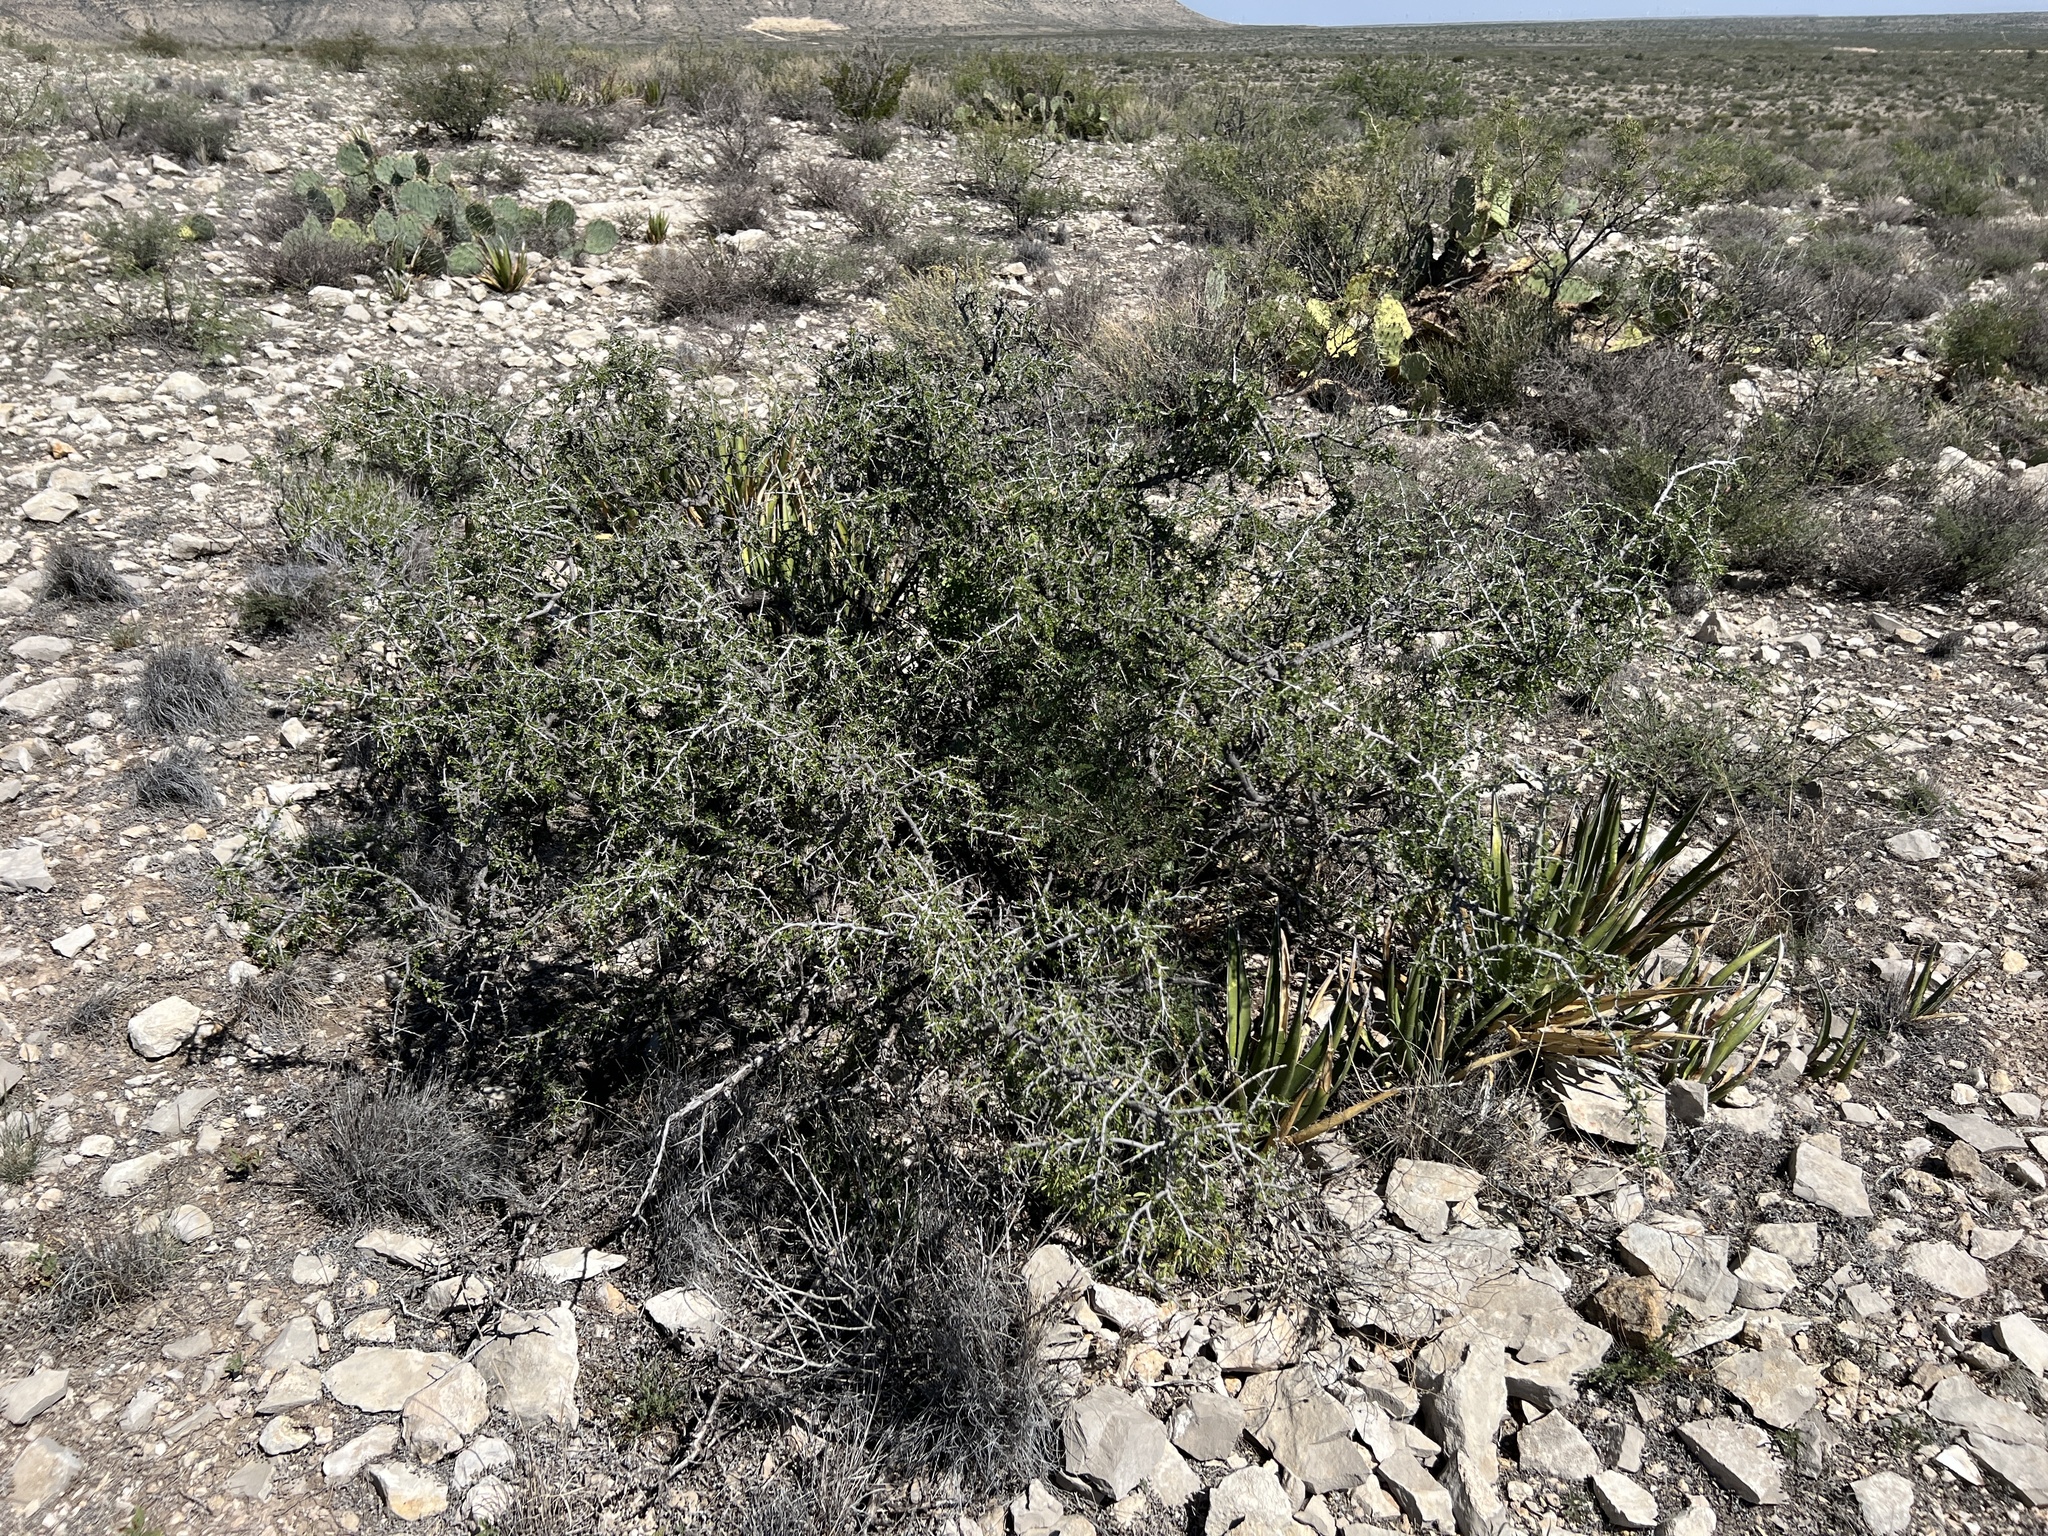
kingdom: Plantae
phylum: Tracheophyta
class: Magnoliopsida
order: Rosales
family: Rhamnaceae
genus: Condalia
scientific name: Condalia viridis
